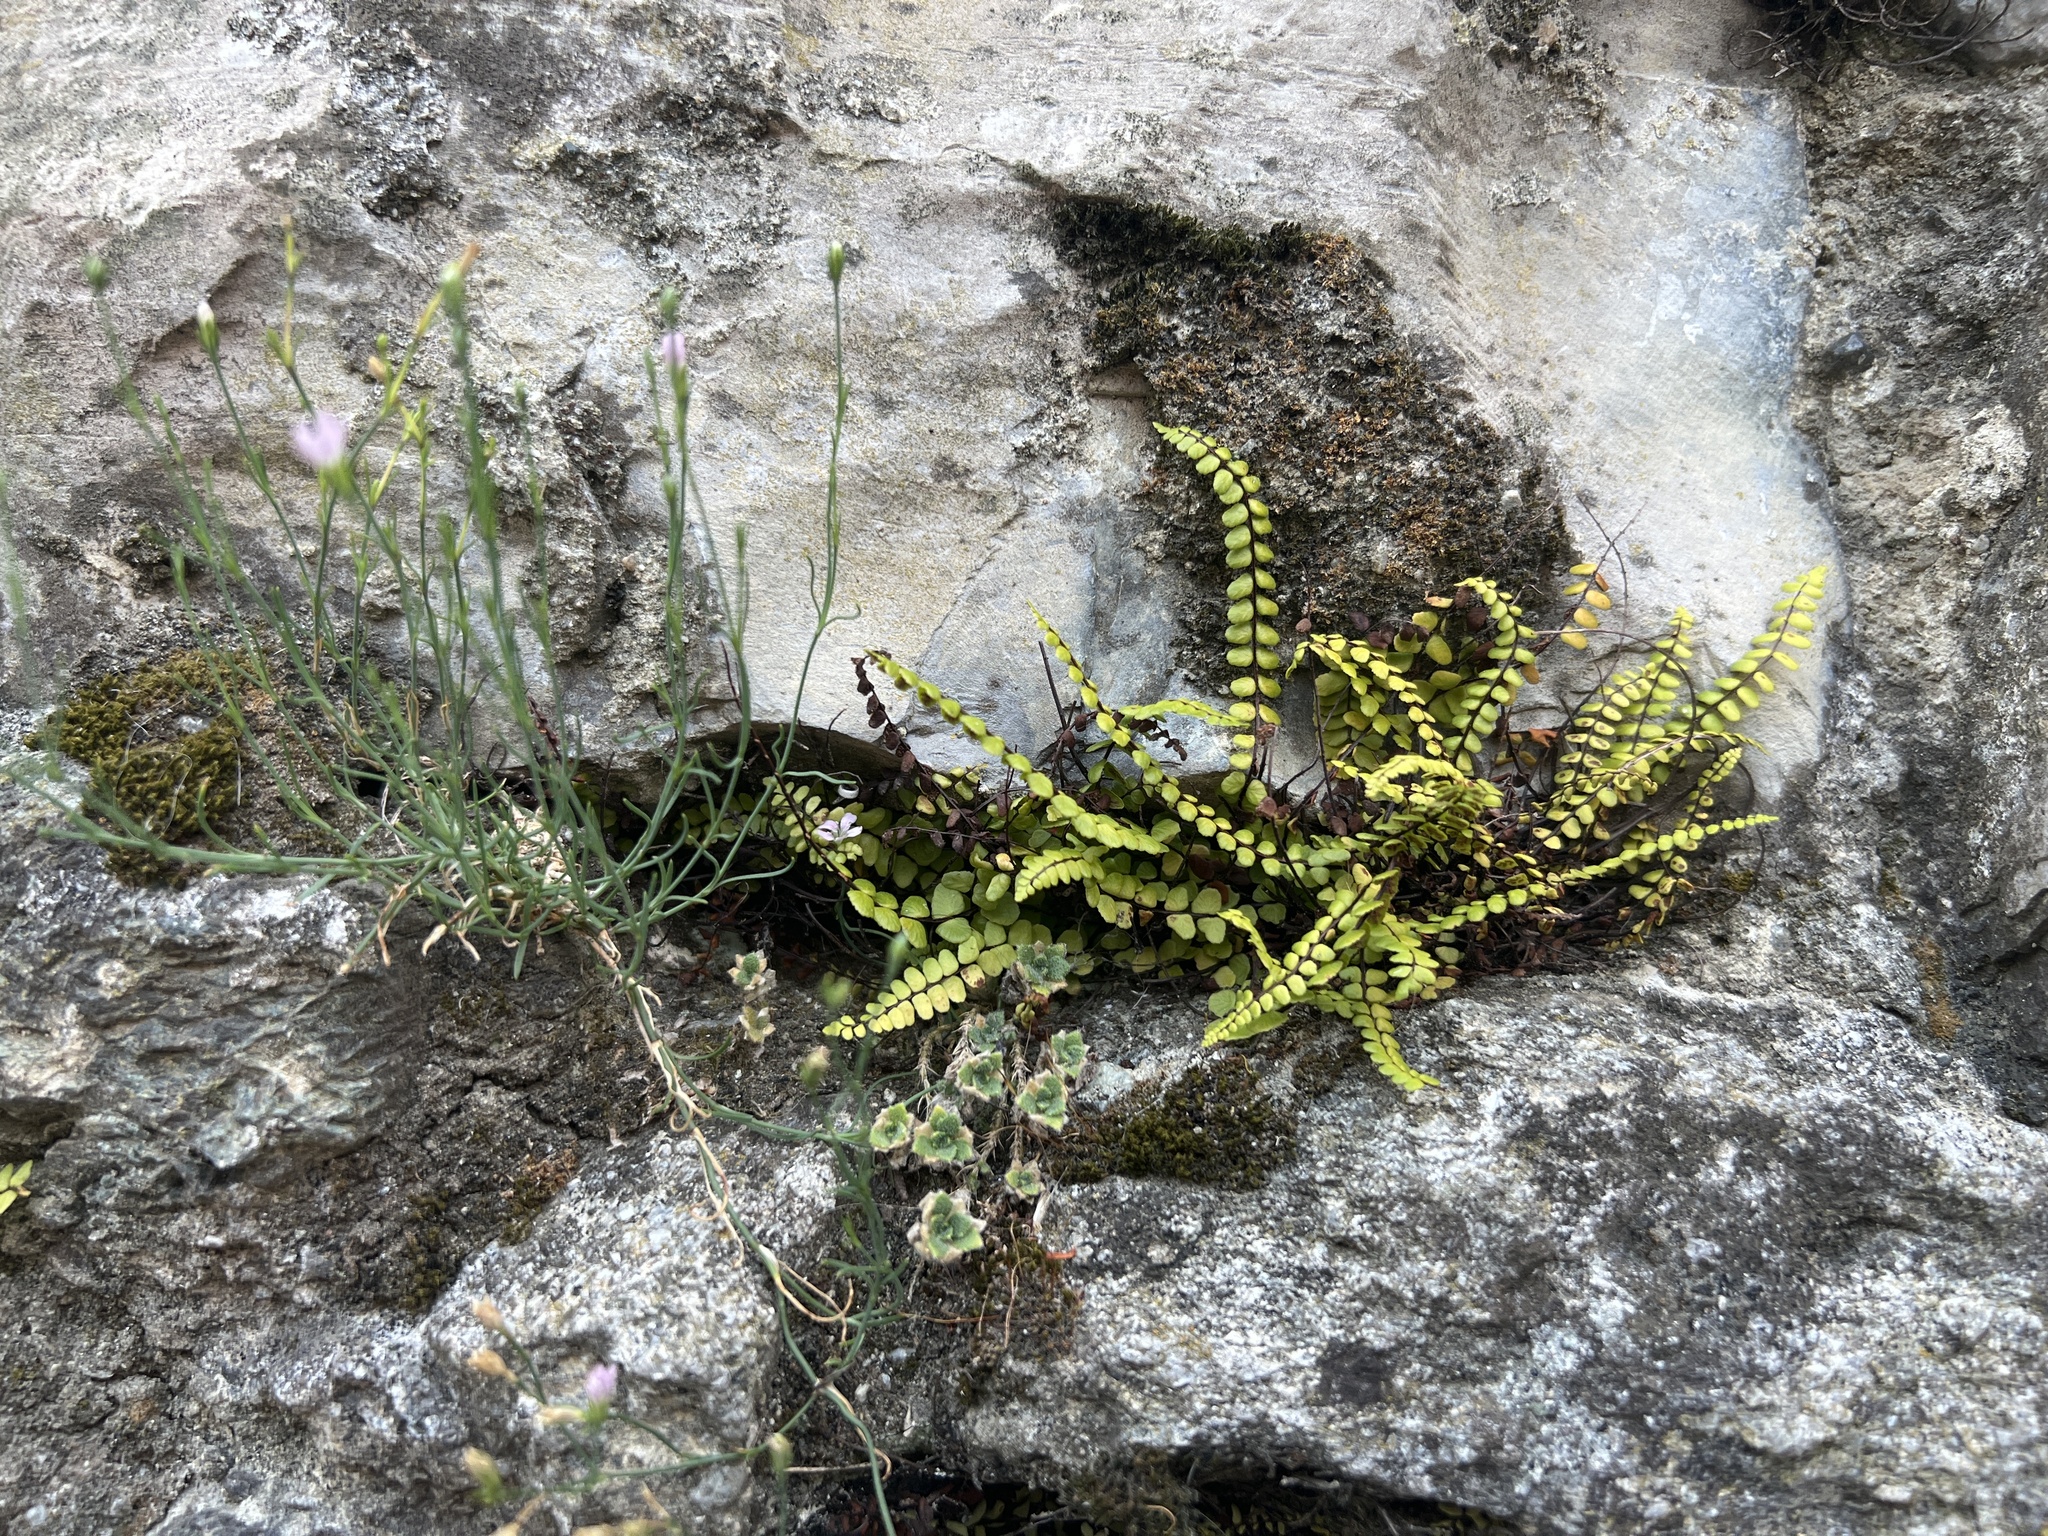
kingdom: Plantae
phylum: Tracheophyta
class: Polypodiopsida
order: Polypodiales
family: Aspleniaceae
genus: Asplenium
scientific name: Asplenium trichomanes
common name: Maidenhair spleenwort
